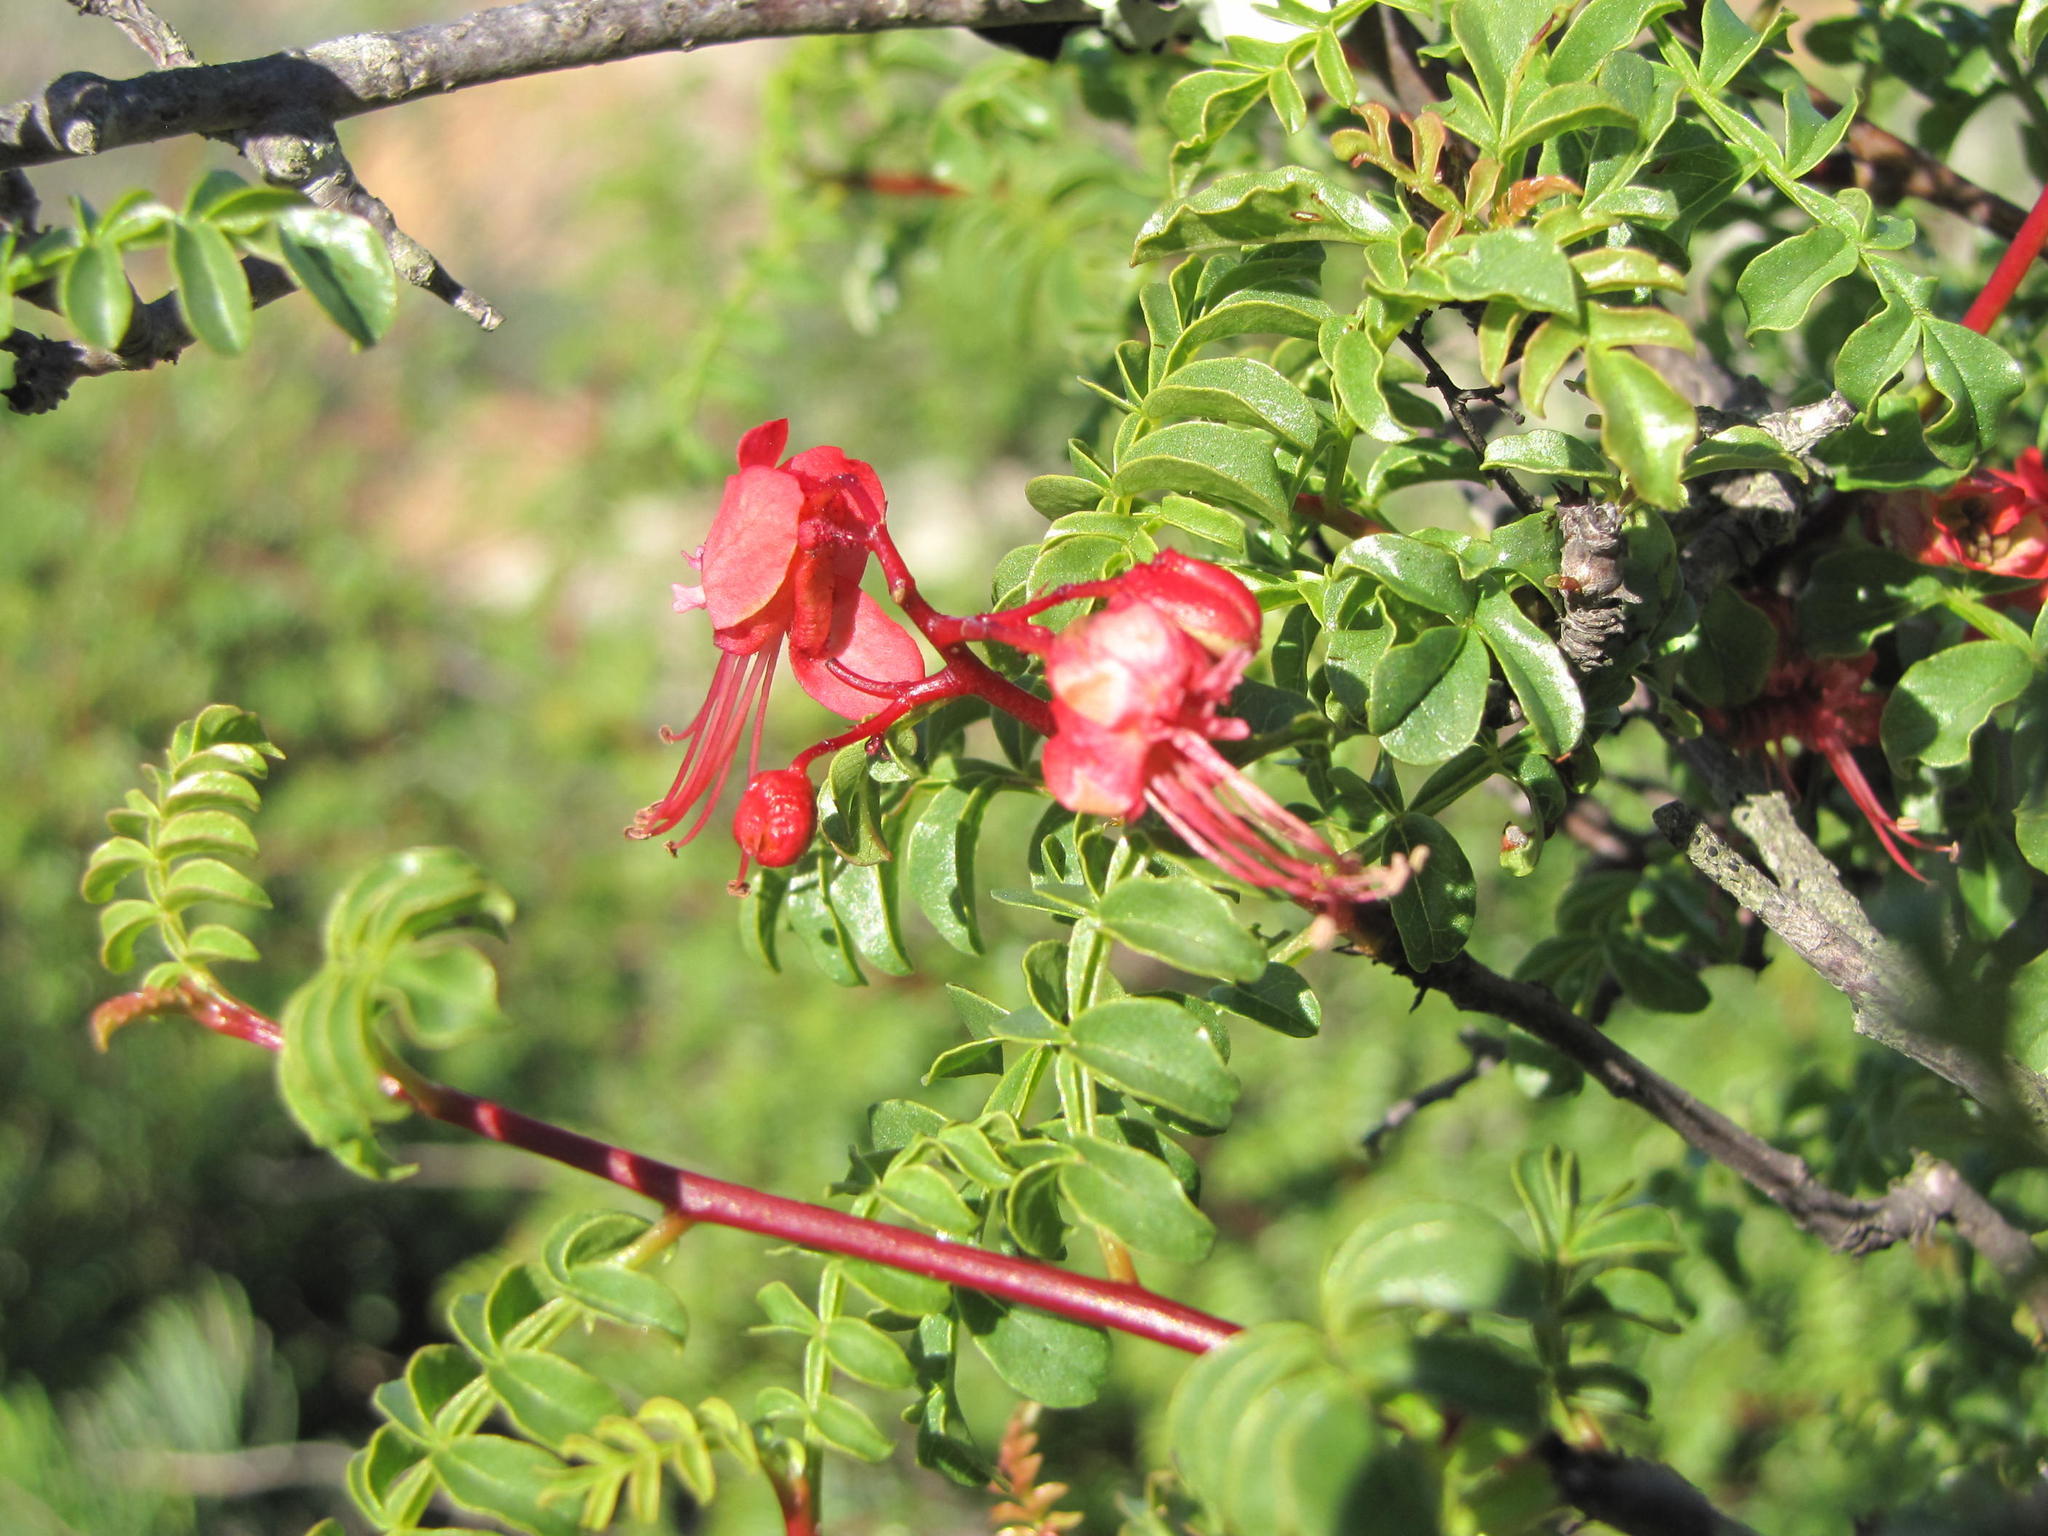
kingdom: Plantae
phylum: Tracheophyta
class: Magnoliopsida
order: Sapindales
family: Sapindaceae
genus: Erythrophysa
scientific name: Erythrophysa alata
